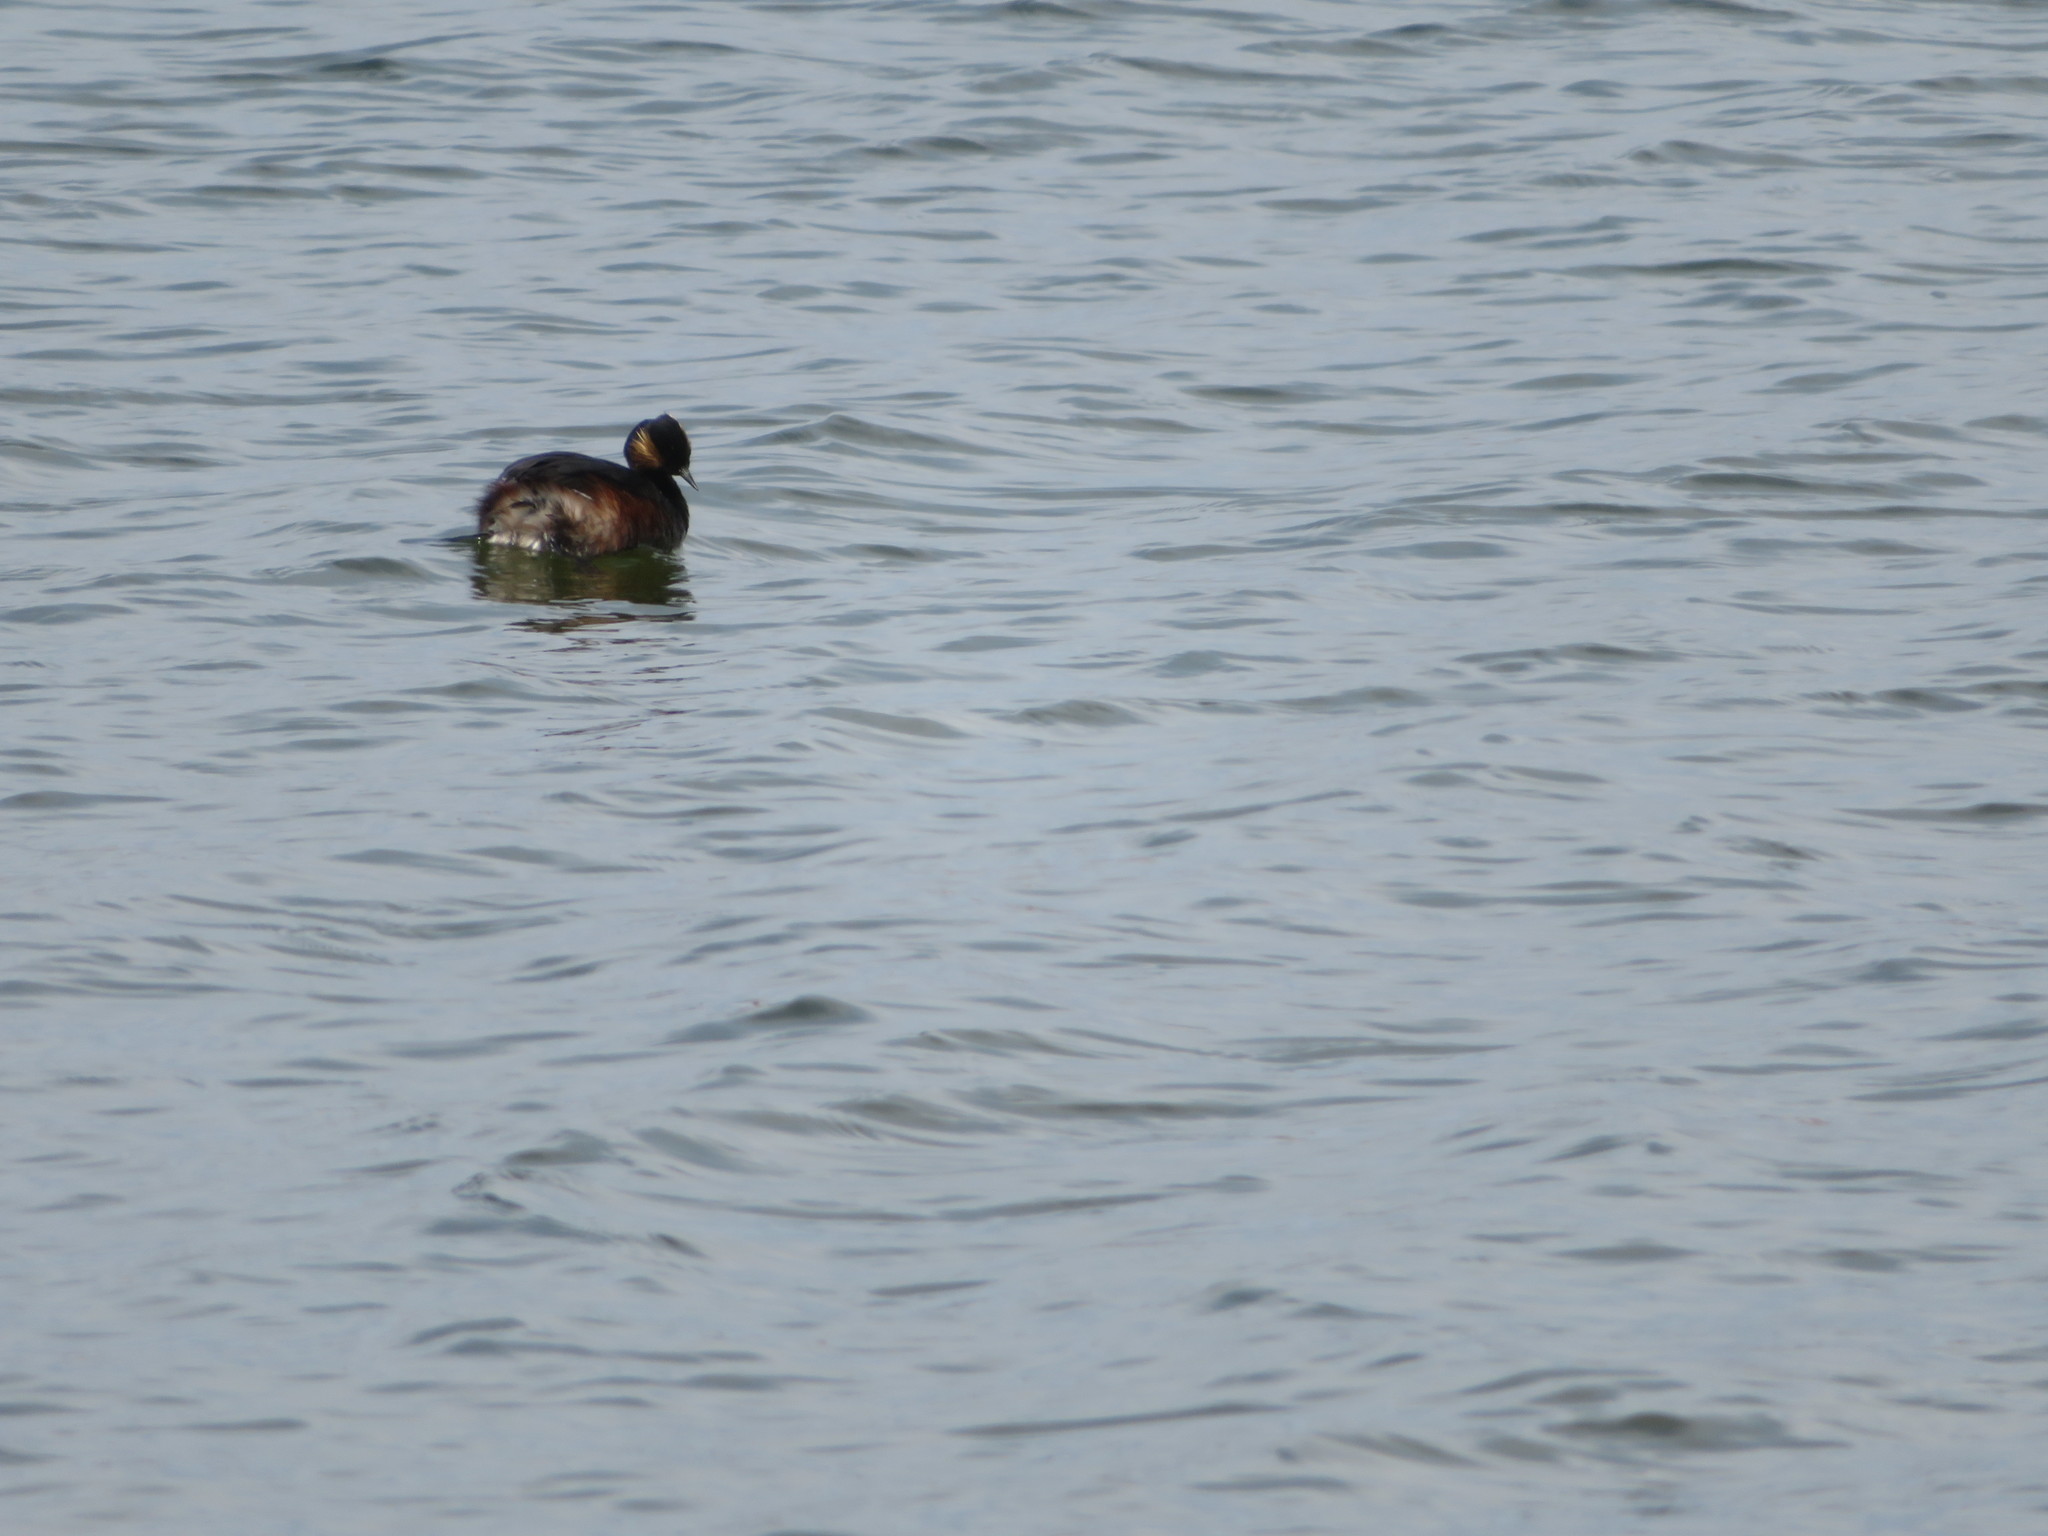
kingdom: Animalia
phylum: Chordata
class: Aves
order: Podicipediformes
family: Podicipedidae
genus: Podiceps
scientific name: Podiceps nigricollis
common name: Black-necked grebe
